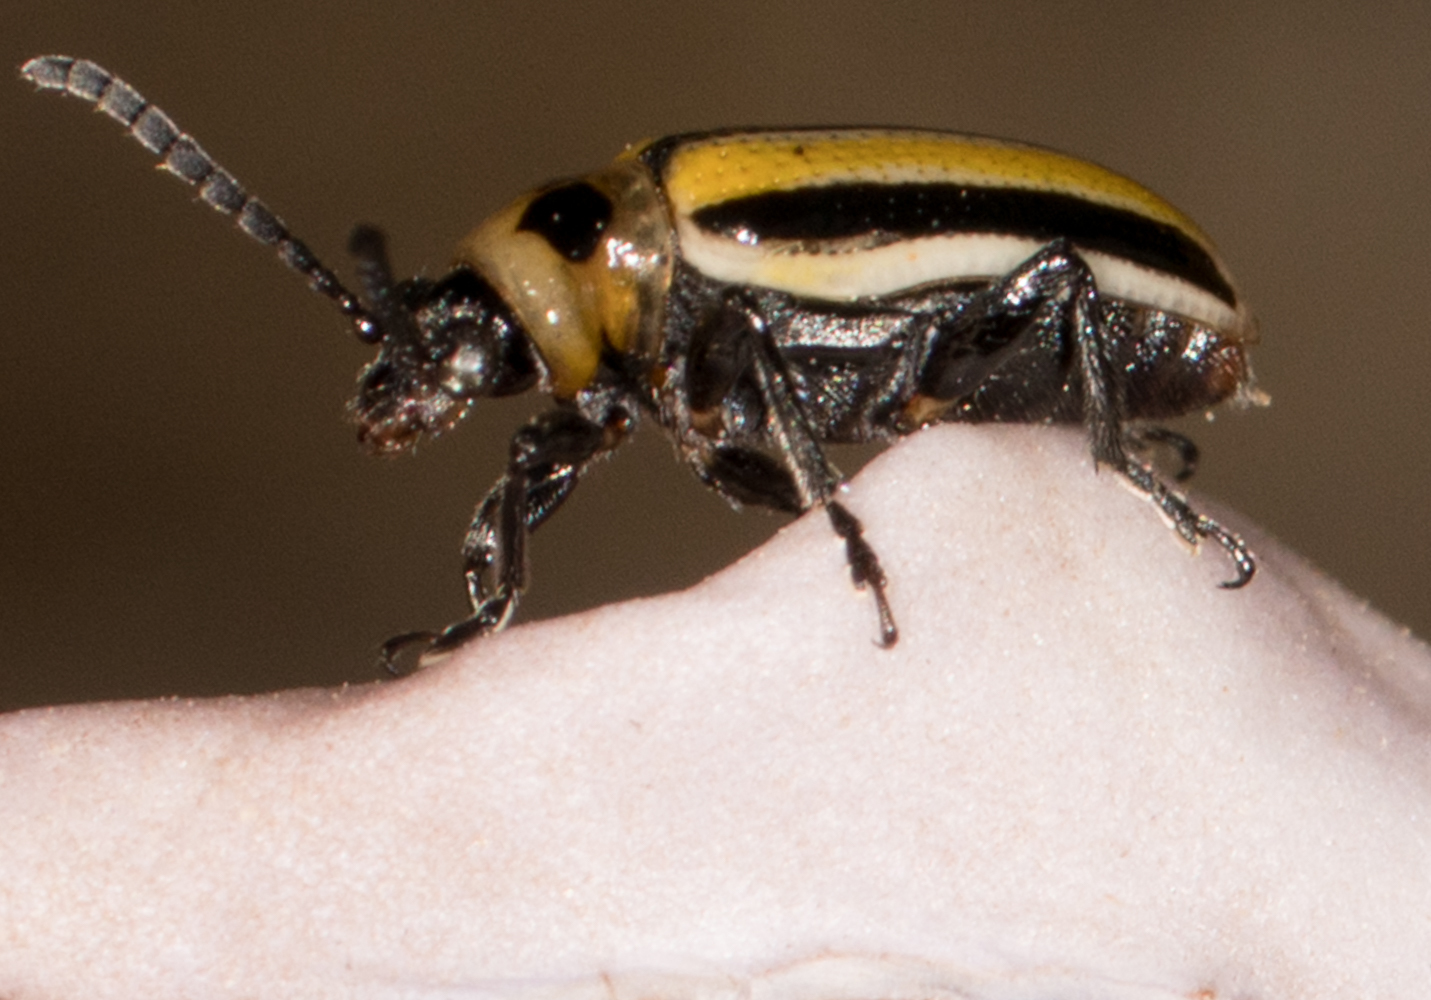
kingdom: Animalia
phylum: Arthropoda
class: Insecta
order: Coleoptera
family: Chrysomelidae
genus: Lema
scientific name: Lema daturaphila
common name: Leaf beetle
